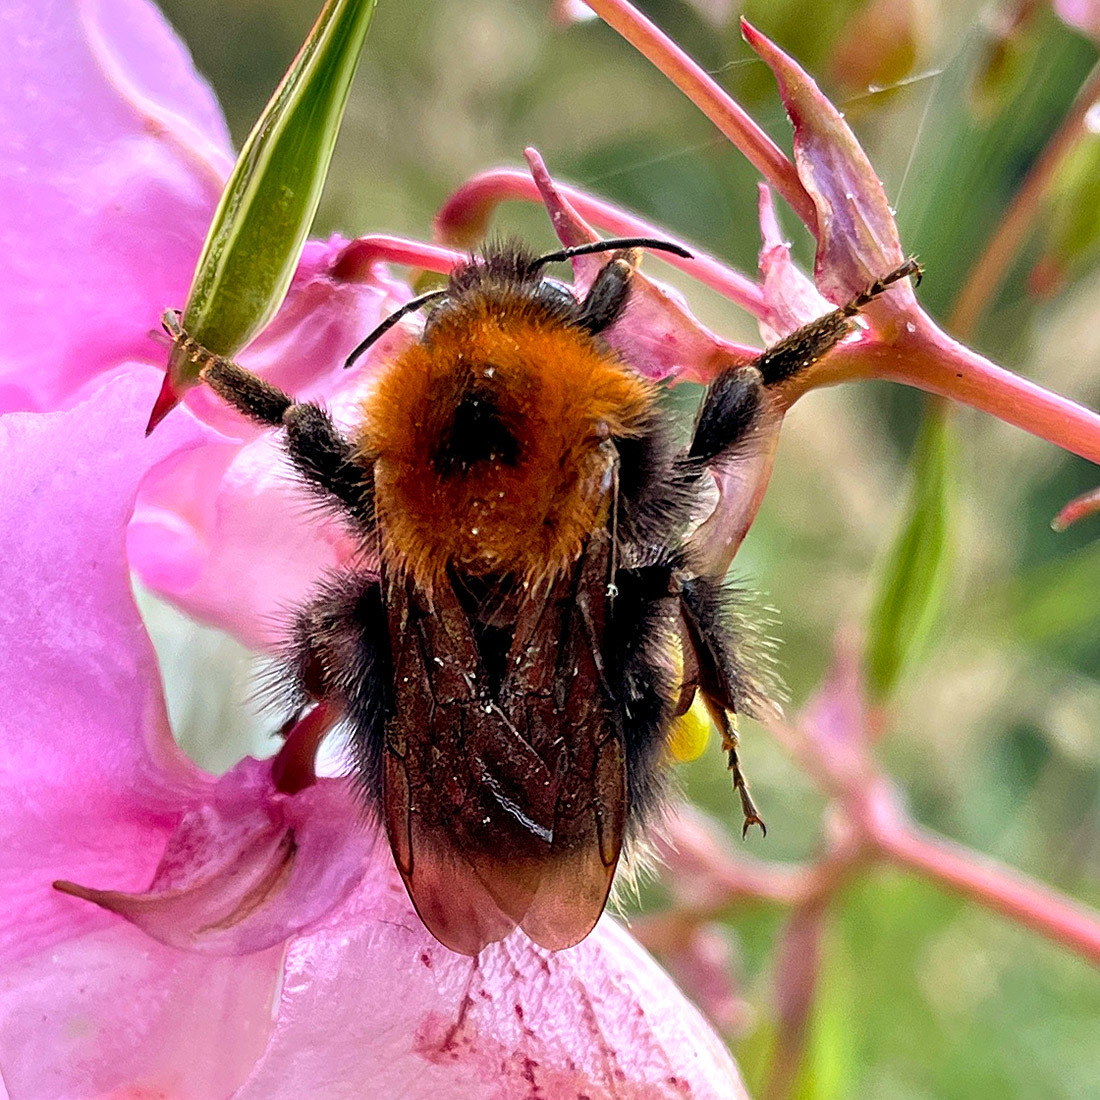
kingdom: Animalia
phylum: Arthropoda
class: Insecta
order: Hymenoptera
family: Apidae
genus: Bombus
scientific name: Bombus hypnorum
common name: New garden bumblebee
